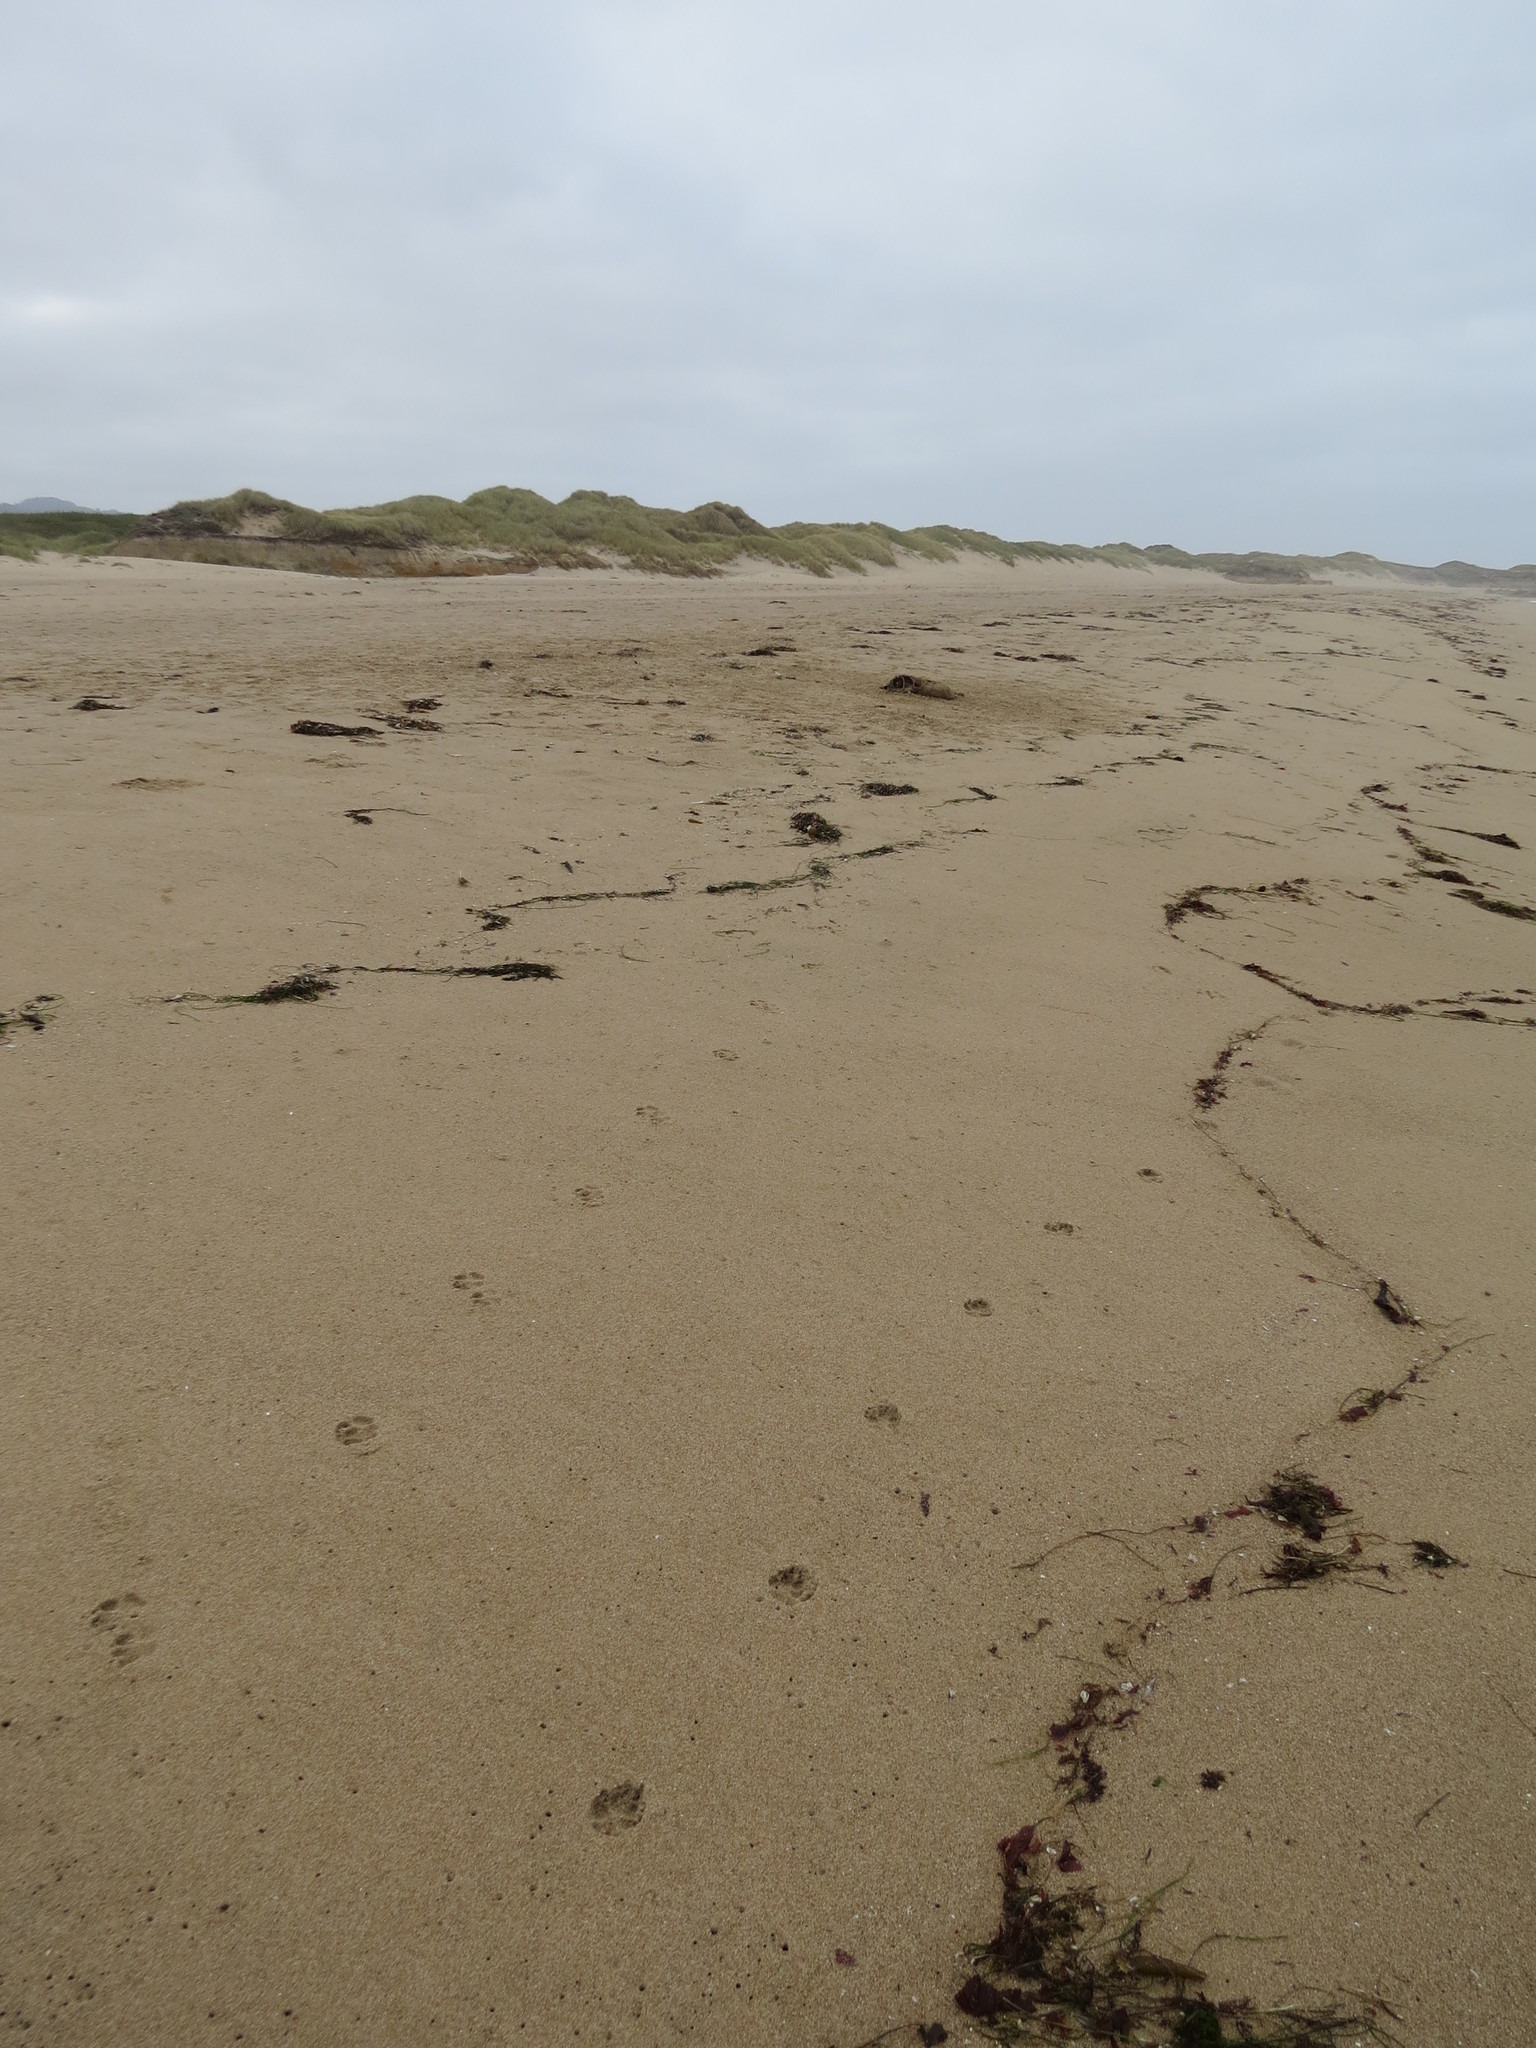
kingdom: Animalia
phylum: Chordata
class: Mammalia
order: Carnivora
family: Canidae
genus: Canis
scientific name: Canis latrans
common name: Coyote
